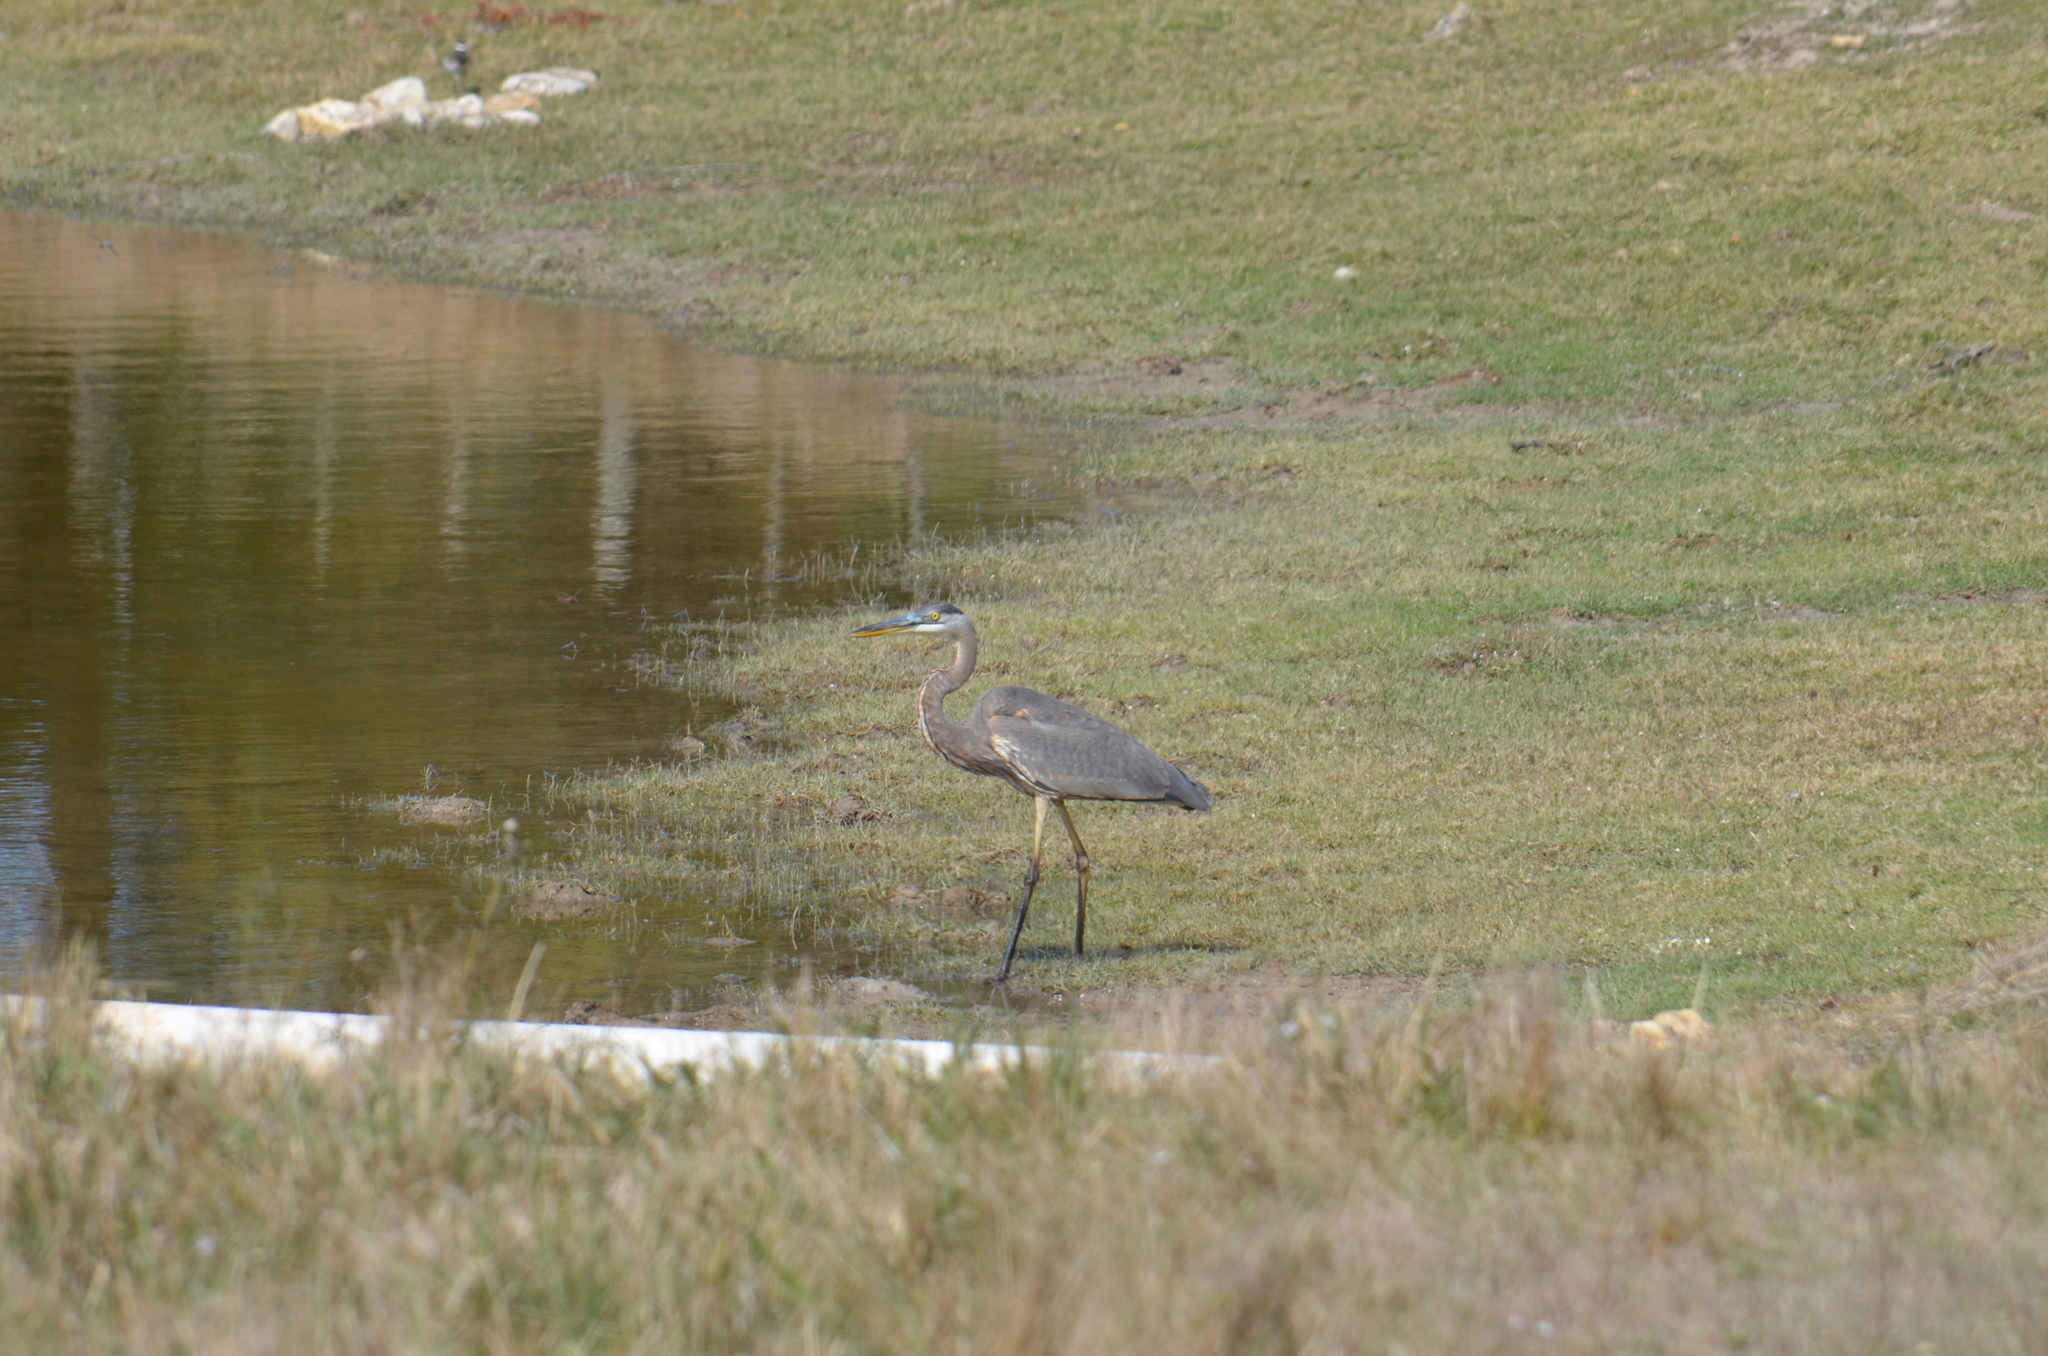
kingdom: Animalia
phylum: Chordata
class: Aves
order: Pelecaniformes
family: Ardeidae
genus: Ardea
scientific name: Ardea herodias
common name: Great blue heron
